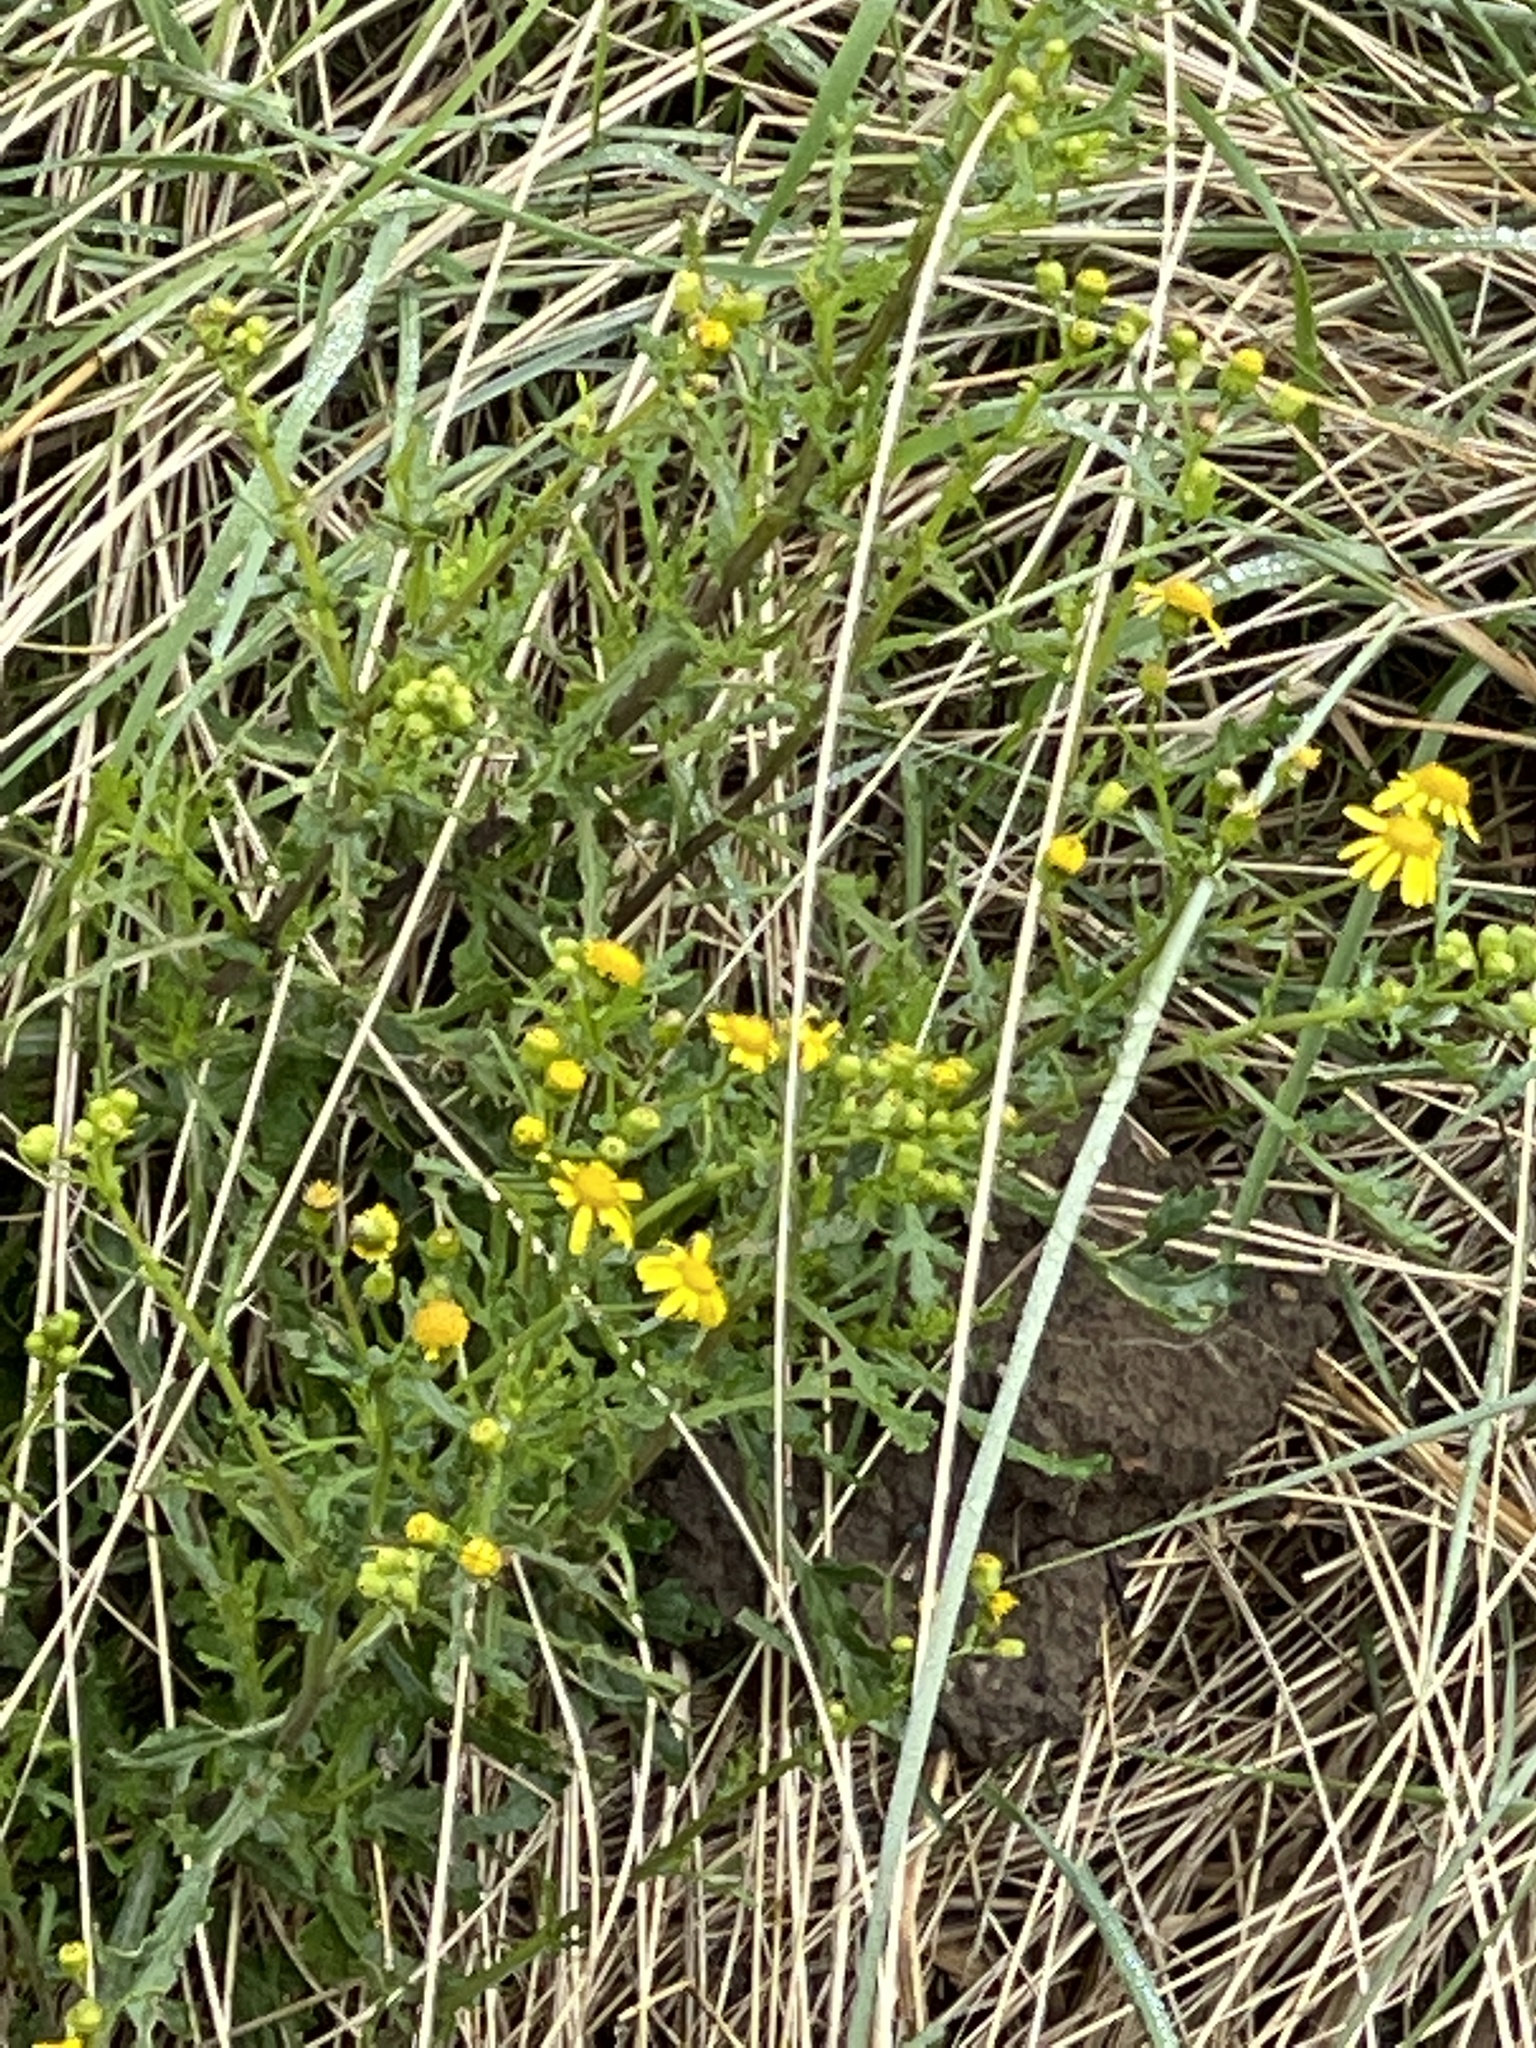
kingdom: Plantae
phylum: Tracheophyta
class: Magnoliopsida
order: Asterales
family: Asteraceae
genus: Senecio
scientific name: Senecio squalidus
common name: Oxford ragwort
